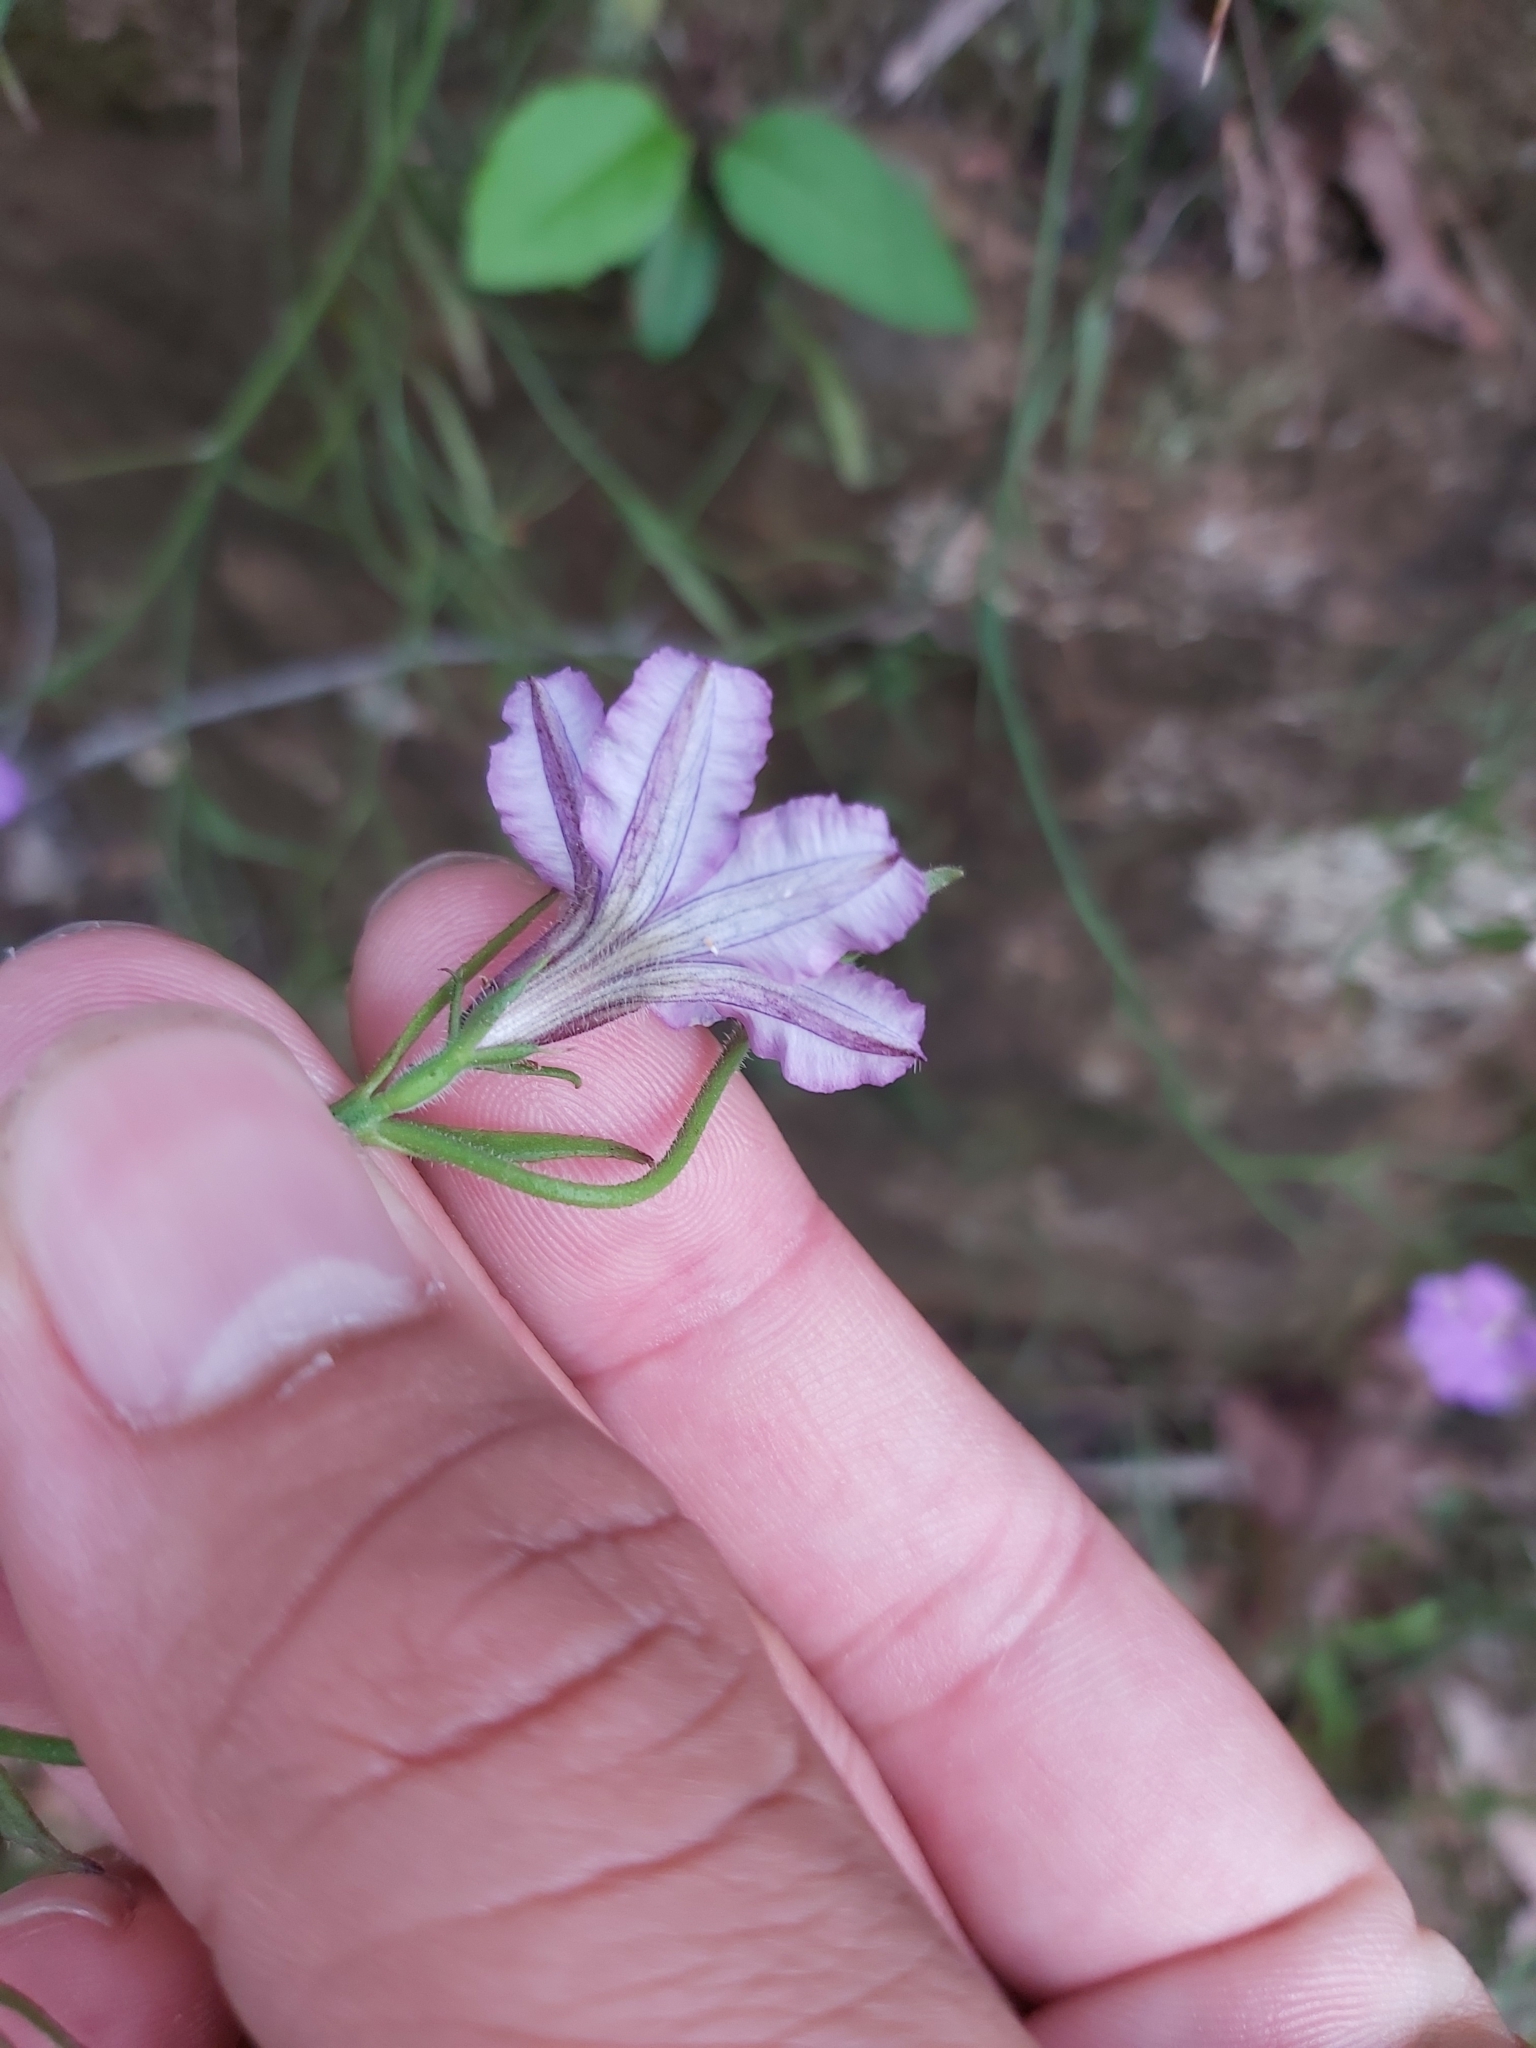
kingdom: Plantae
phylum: Tracheophyta
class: Magnoliopsida
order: Asterales
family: Goodeniaceae
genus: Scaevola
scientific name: Scaevola ramosissima
